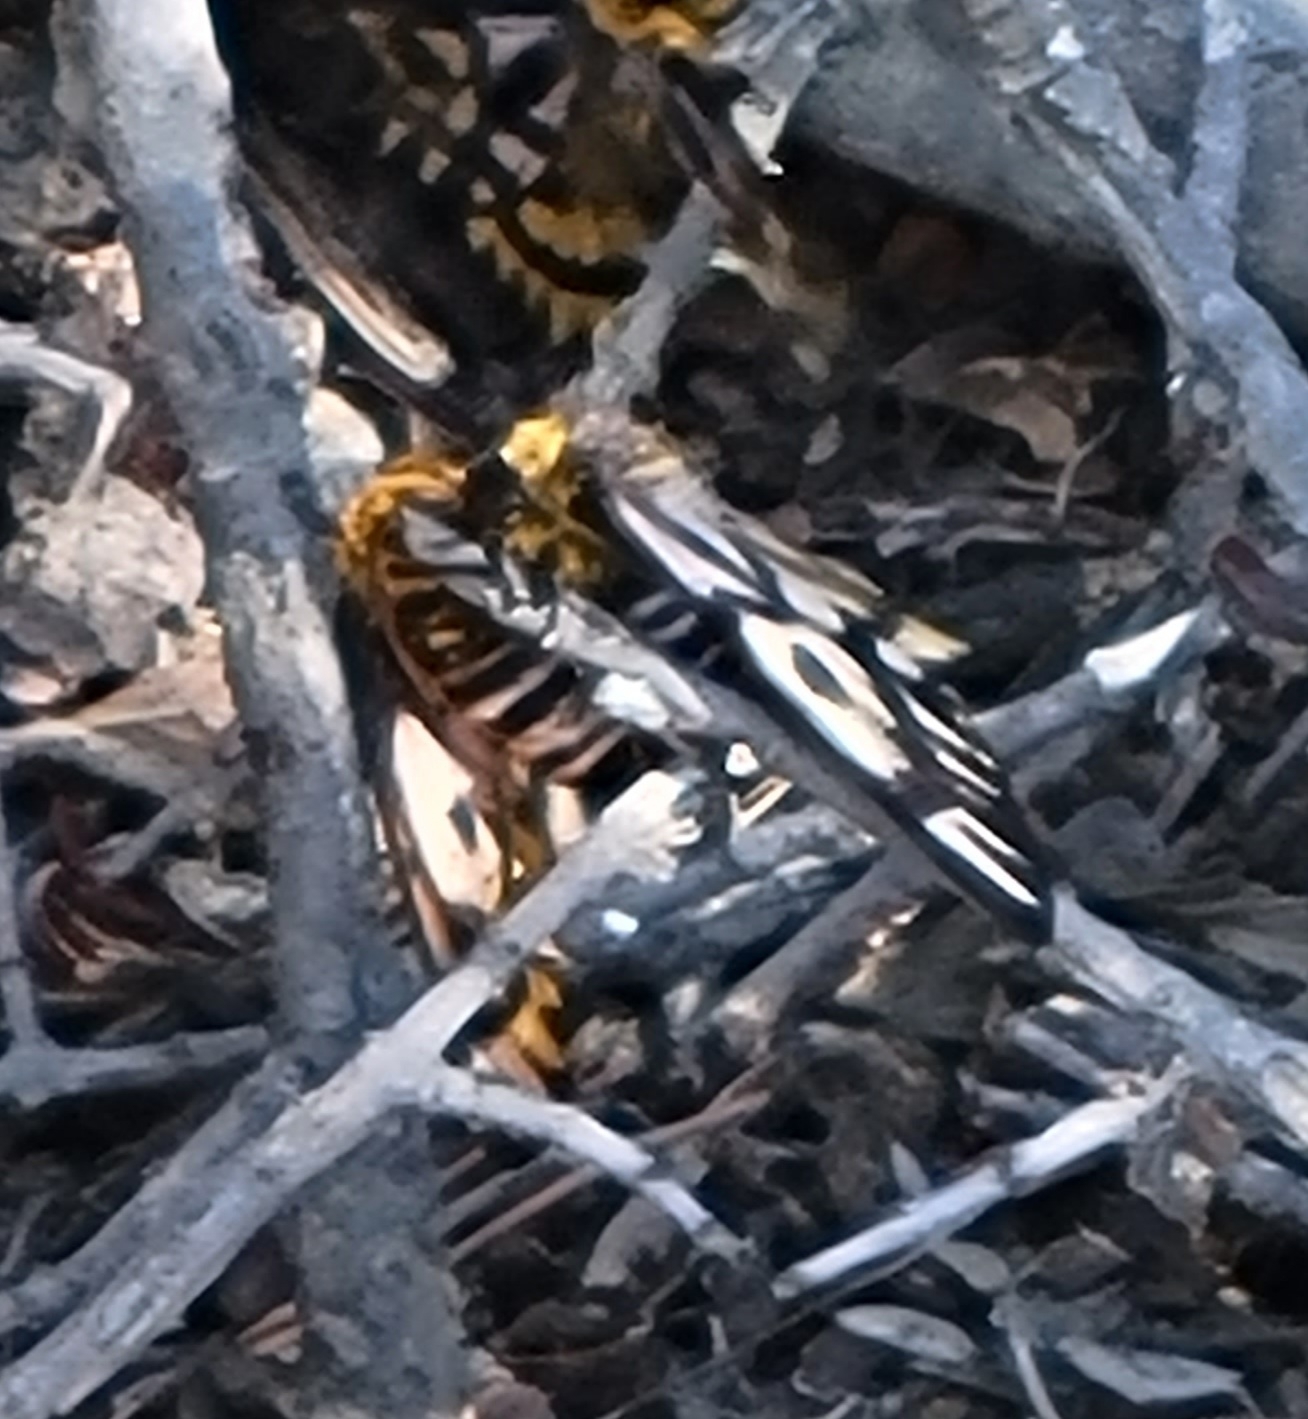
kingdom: Animalia
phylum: Arthropoda
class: Insecta
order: Lepidoptera
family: Saturniidae
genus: Hemileuca
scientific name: Hemileuca eglanterina
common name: Western sheepmoth
